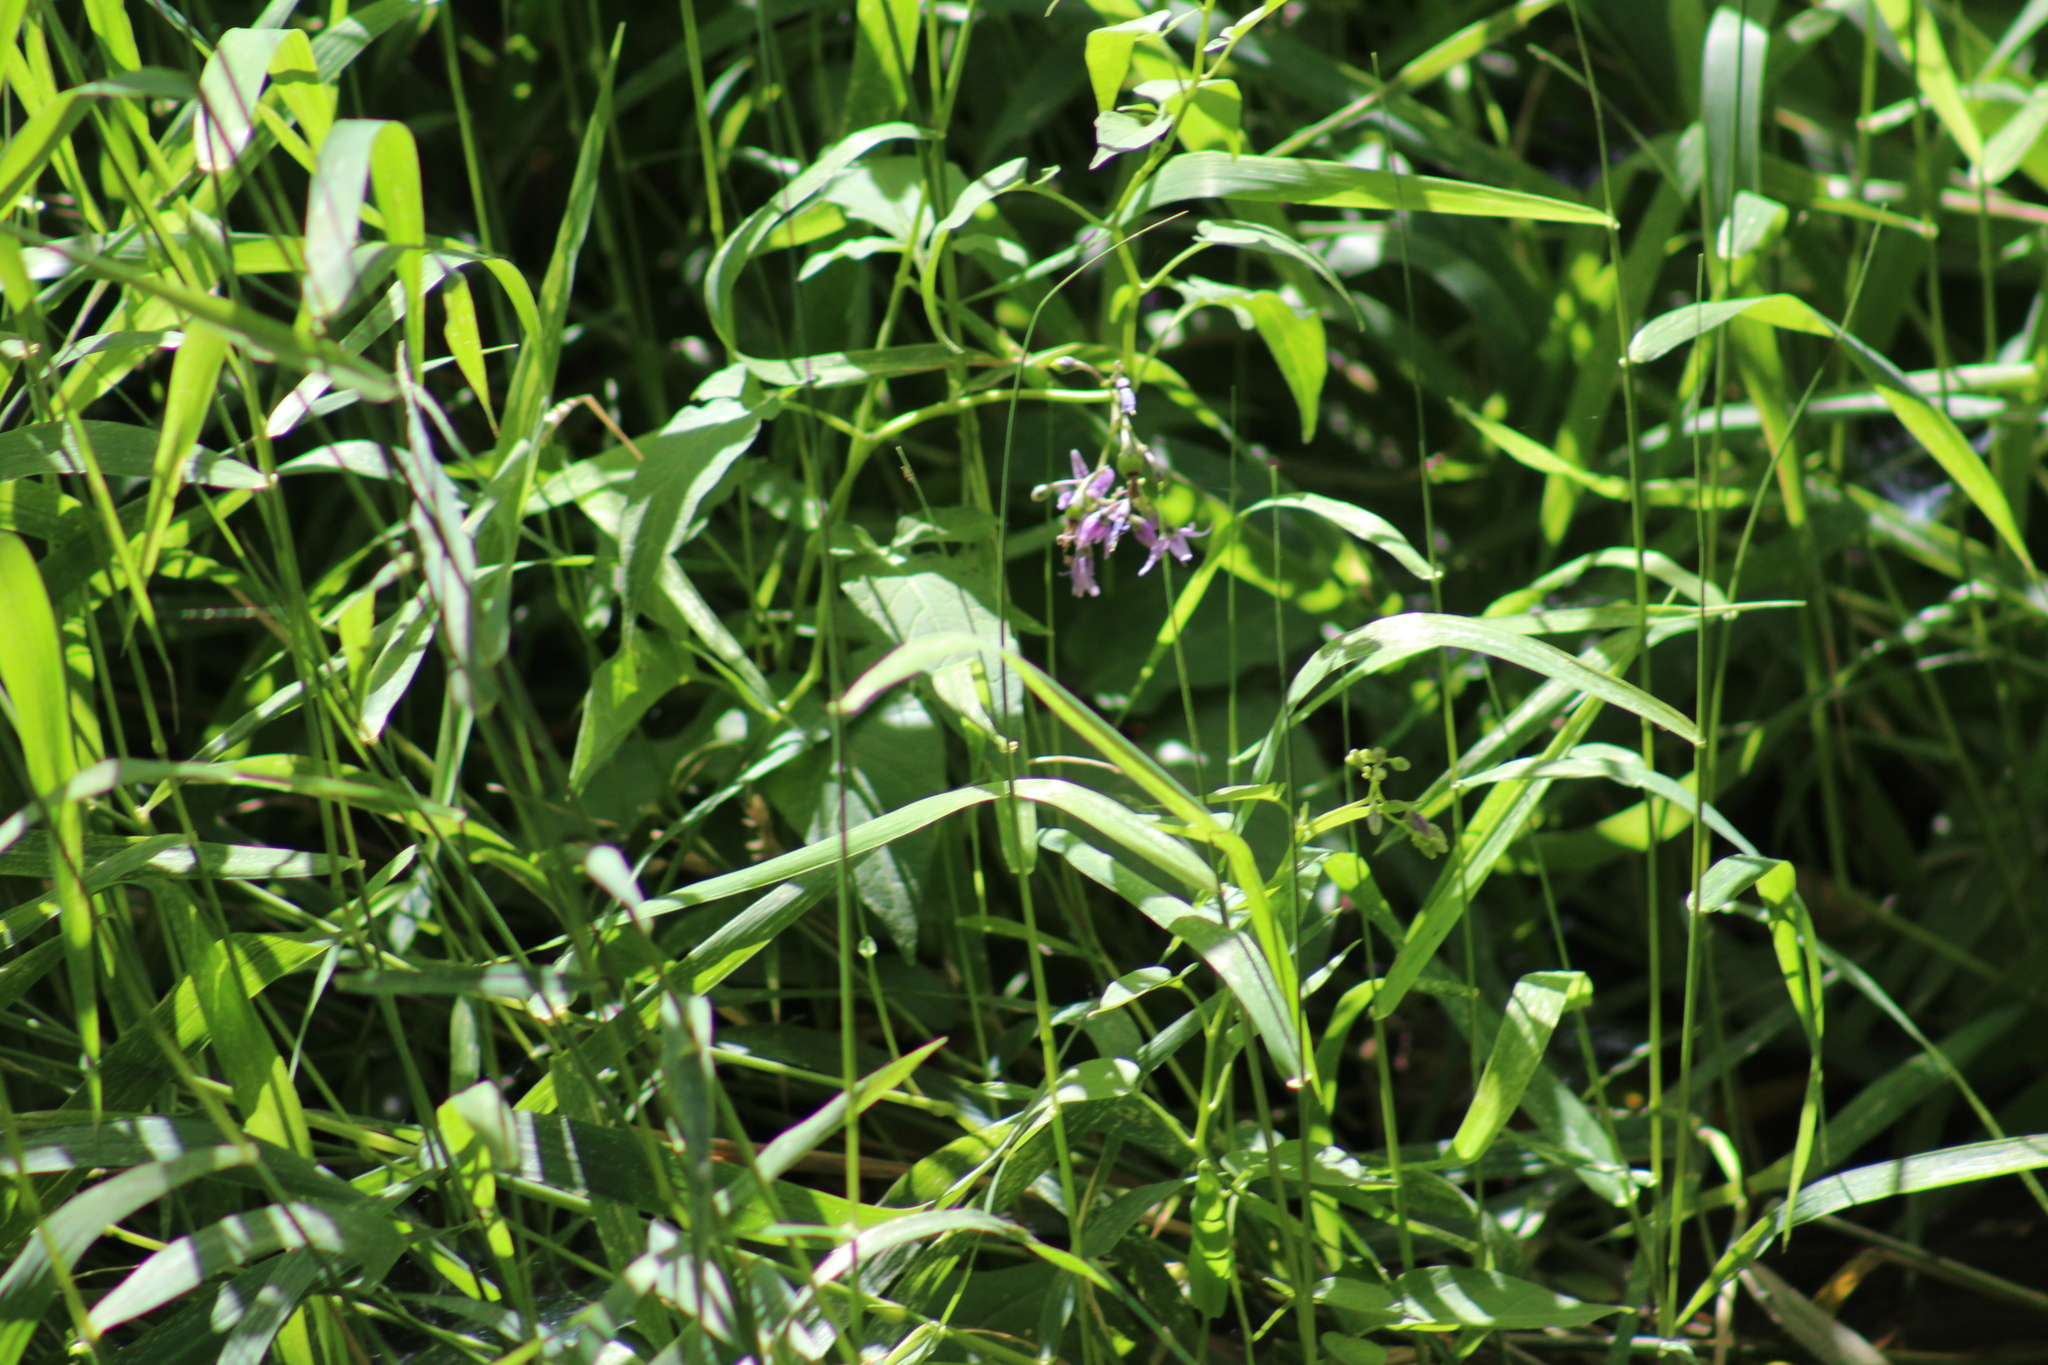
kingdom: Plantae
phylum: Tracheophyta
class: Magnoliopsida
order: Solanales
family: Solanaceae
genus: Solanum
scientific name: Solanum dulcamara
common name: Climbing nightshade
